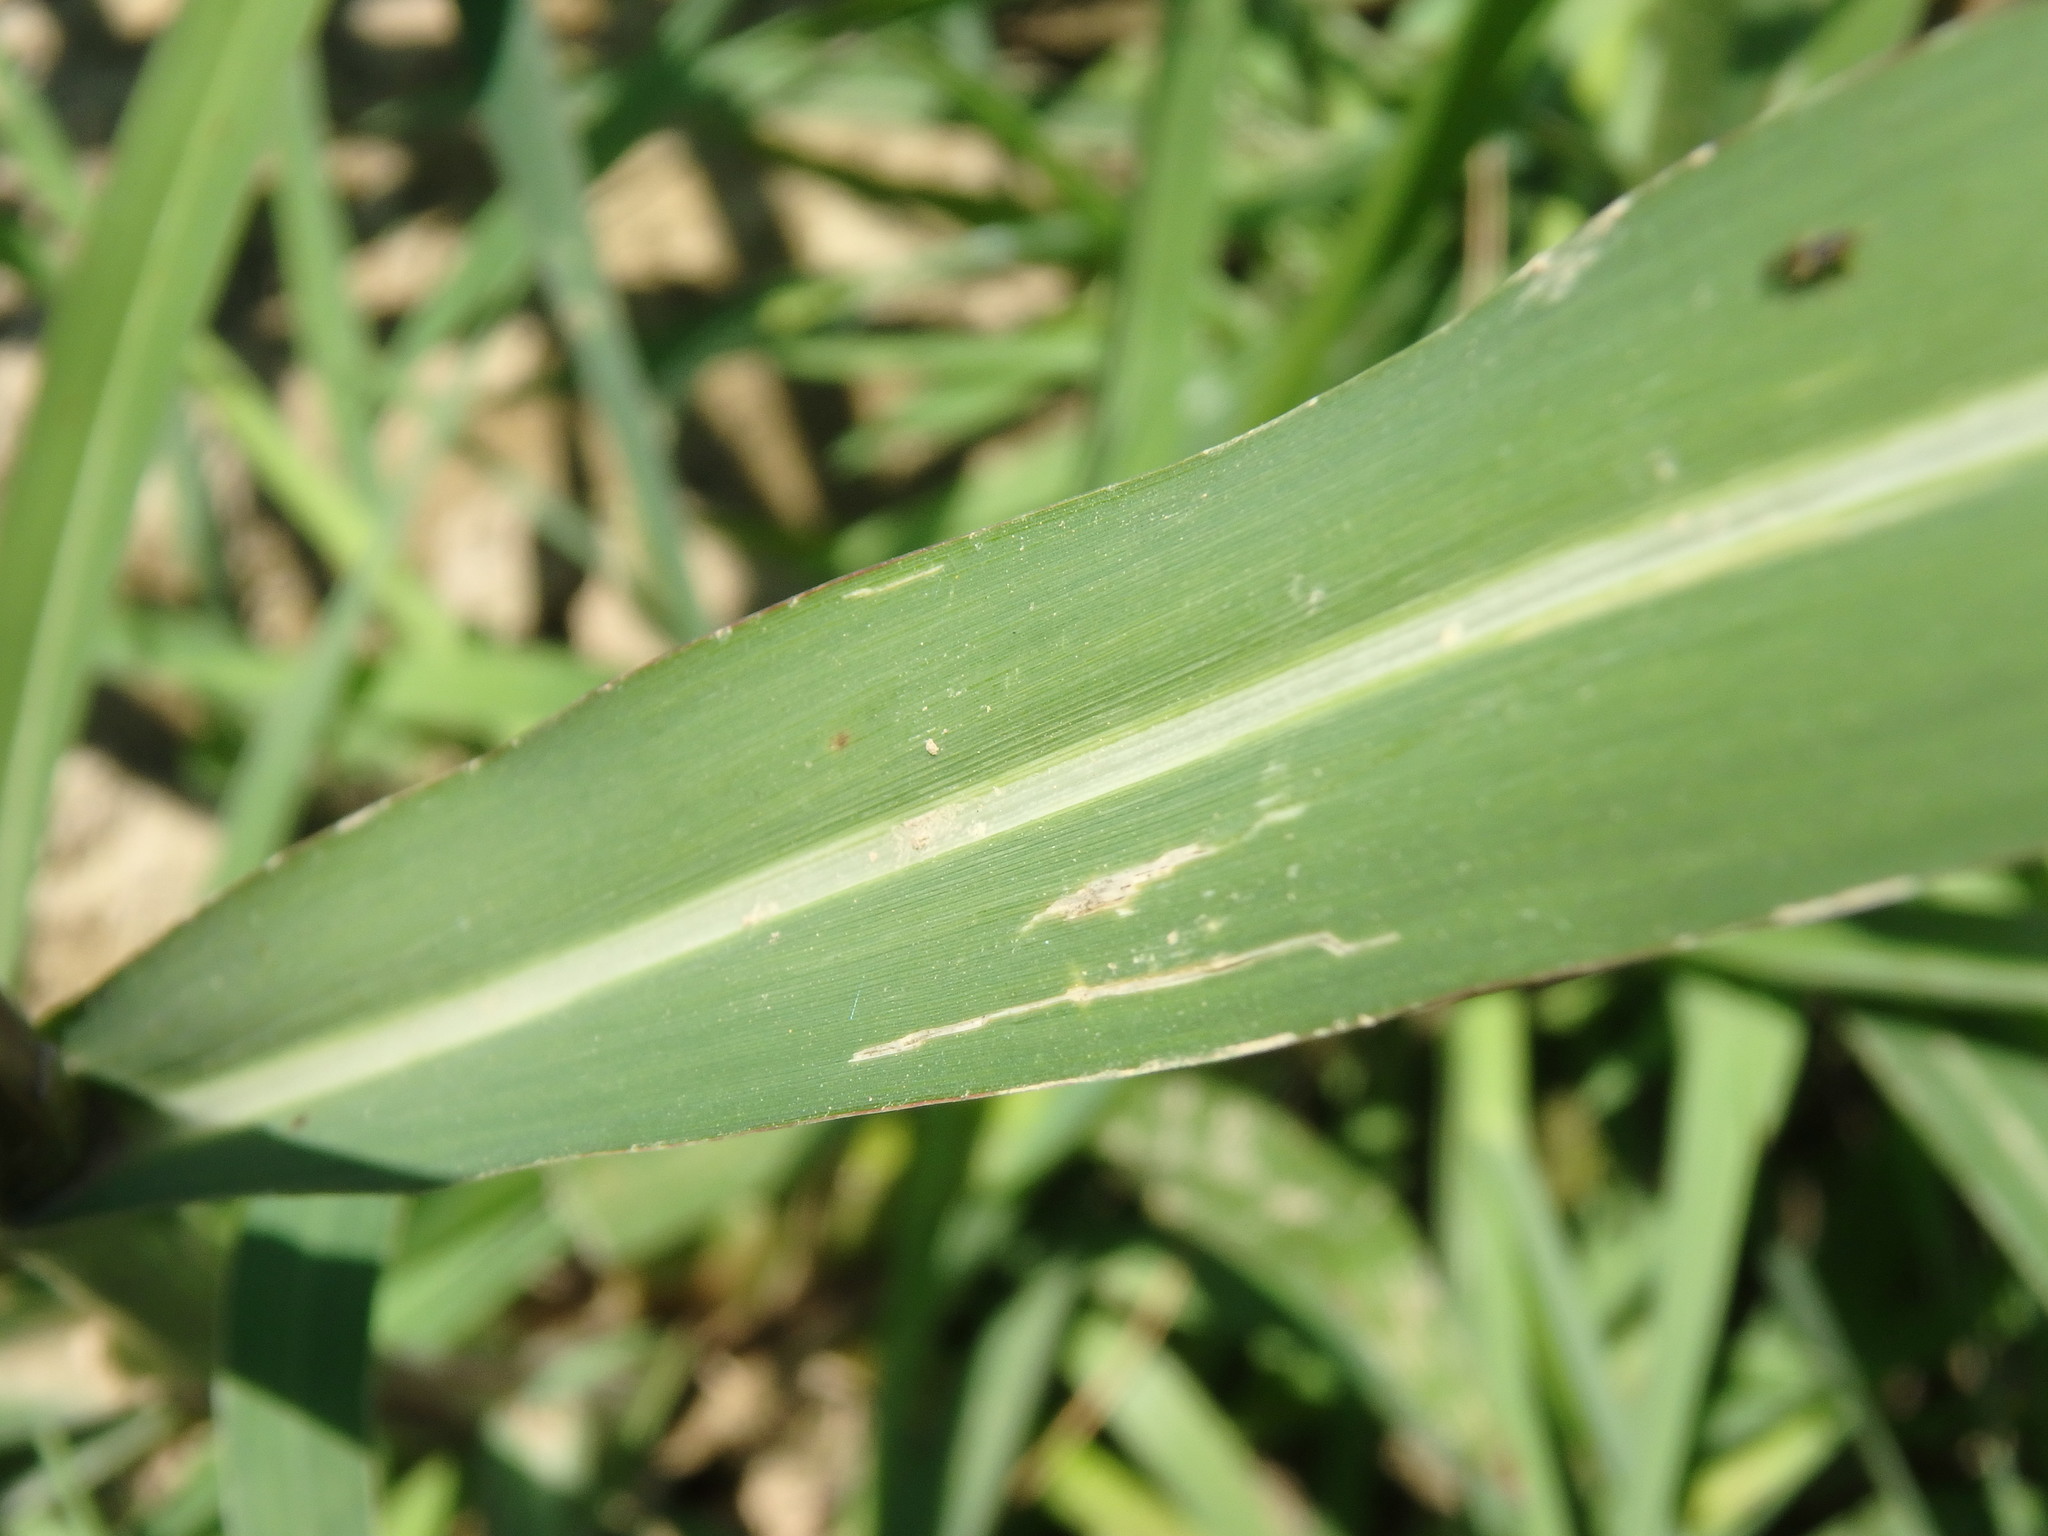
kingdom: Plantae
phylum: Tracheophyta
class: Liliopsida
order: Poales
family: Poaceae
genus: Echinochloa
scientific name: Echinochloa crus-galli
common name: Cockspur
